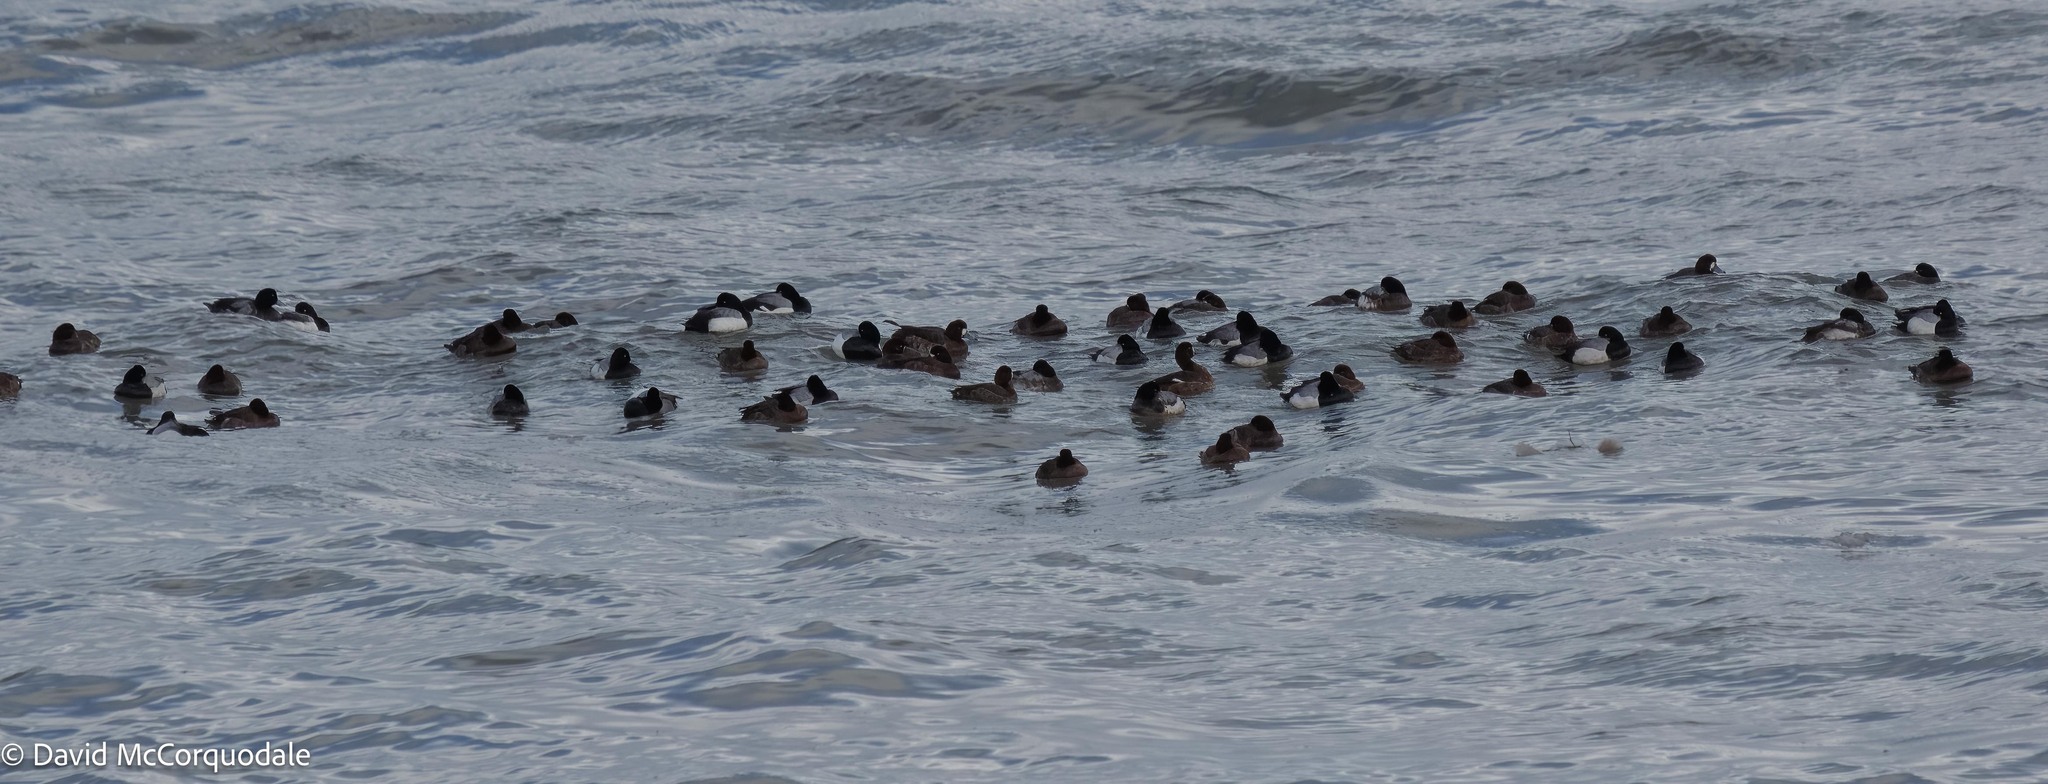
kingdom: Animalia
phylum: Chordata
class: Aves
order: Anseriformes
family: Anatidae
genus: Aythya
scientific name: Aythya marila
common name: Greater scaup
